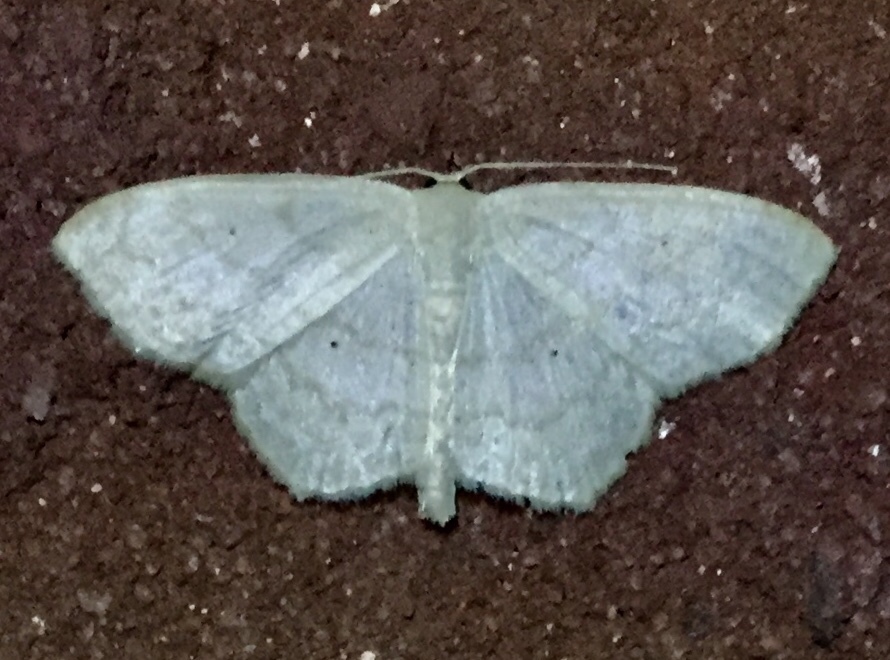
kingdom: Animalia
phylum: Arthropoda
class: Insecta
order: Lepidoptera
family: Geometridae
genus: Scopula
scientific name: Scopula limboundata
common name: Large lace border
